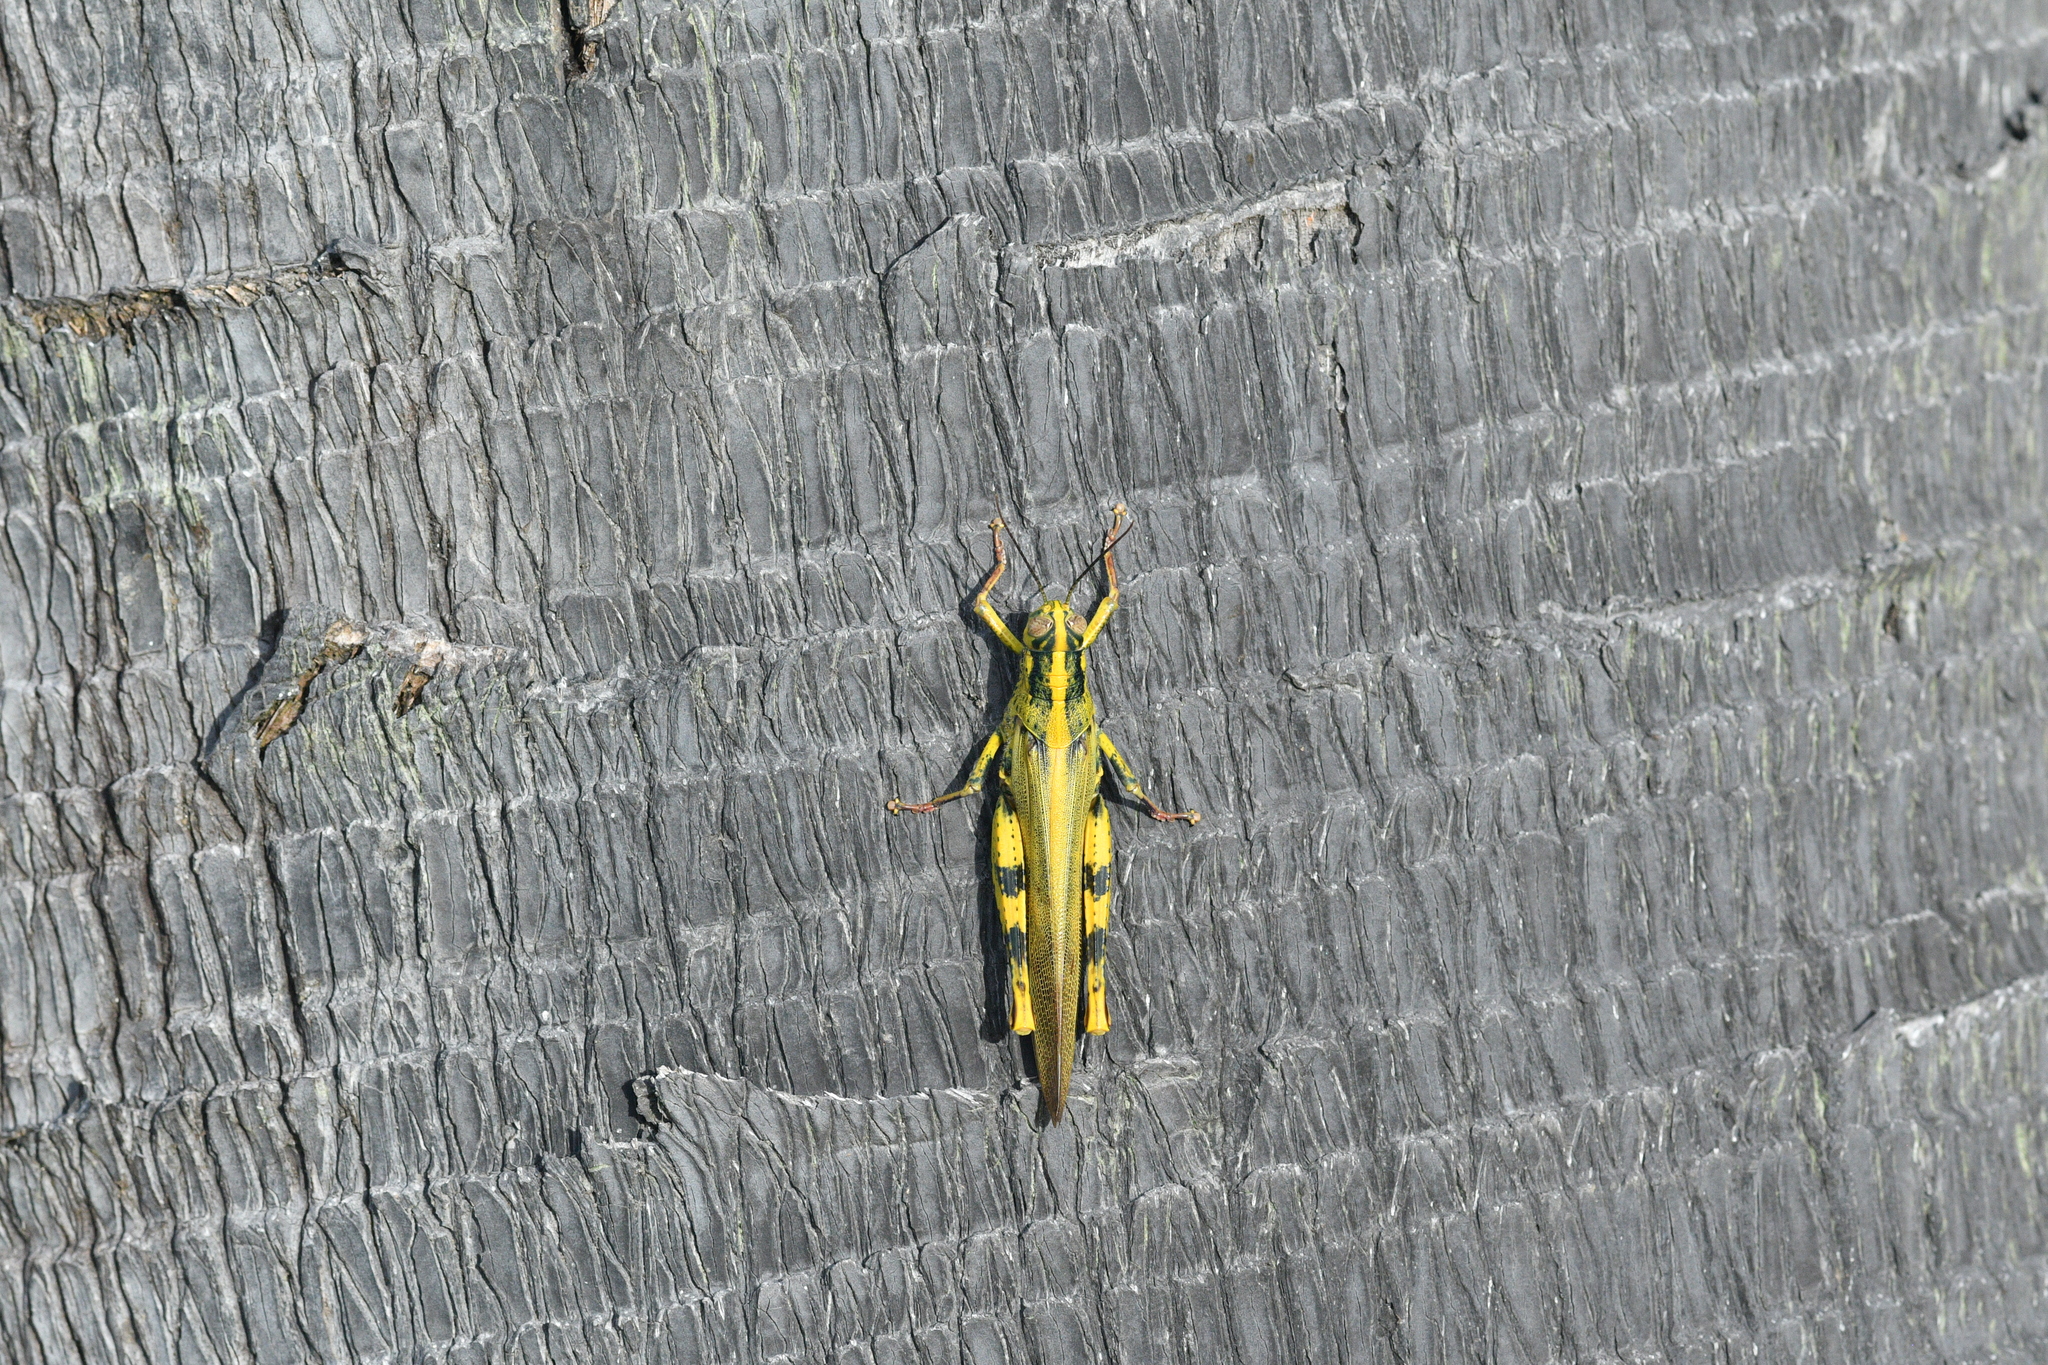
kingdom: Animalia
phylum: Arthropoda
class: Insecta
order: Orthoptera
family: Acrididae
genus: Valanga
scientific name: Valanga nigricornis
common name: Javanese bird grasshopper
